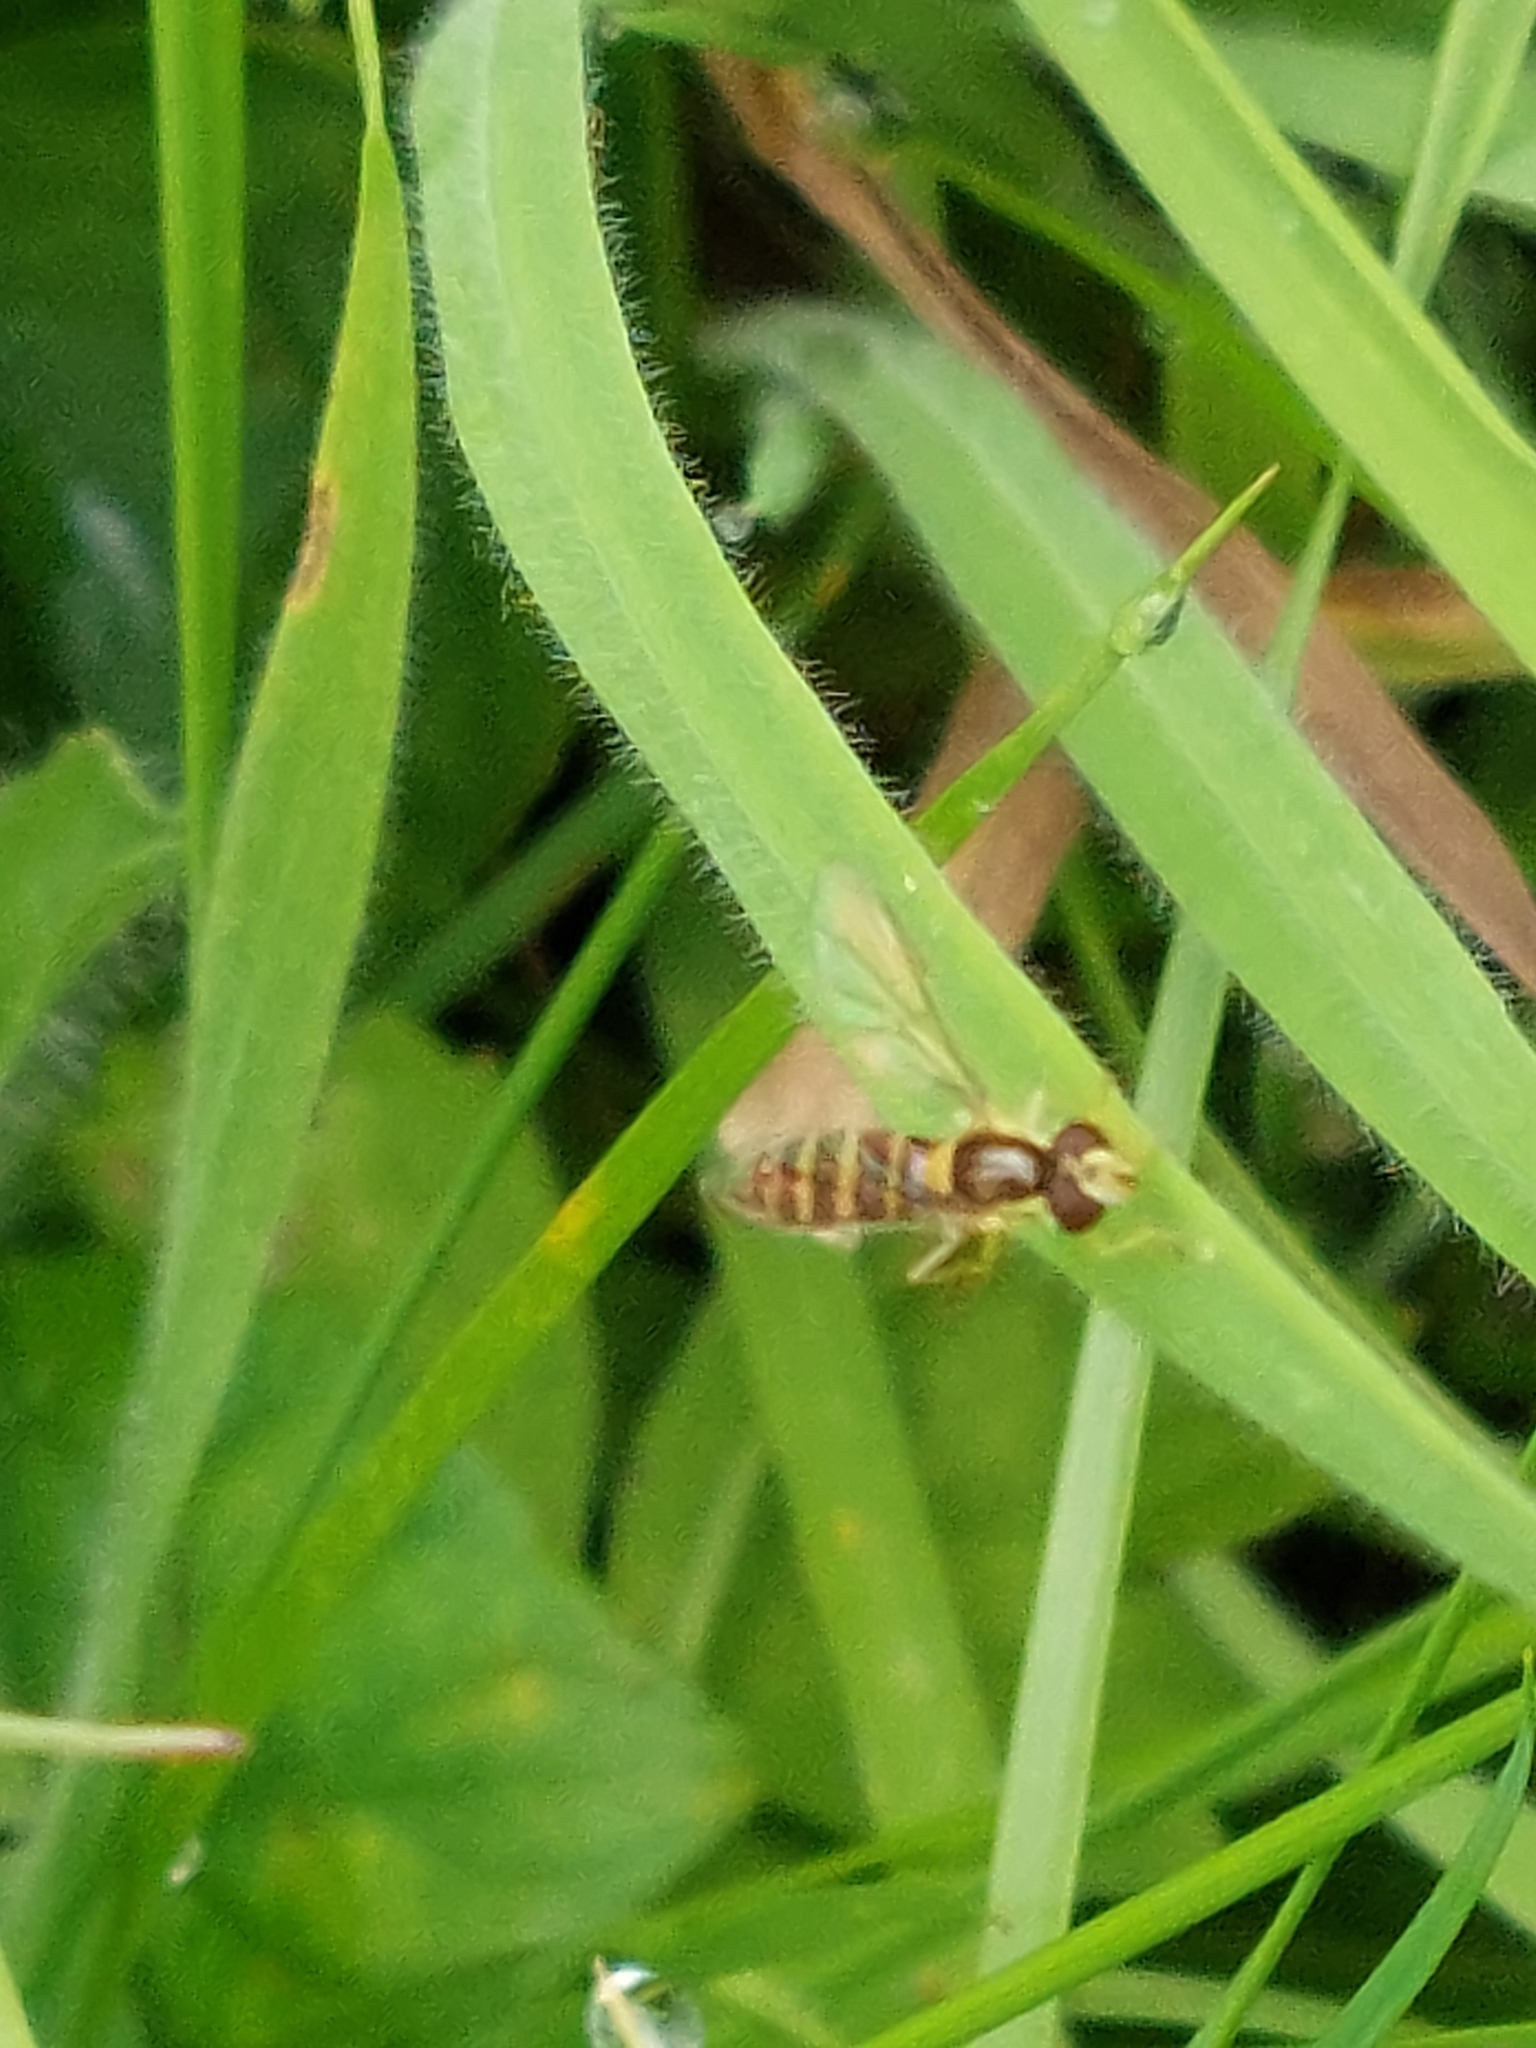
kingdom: Animalia
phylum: Arthropoda
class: Insecta
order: Diptera
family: Syrphidae
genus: Sphaerophoria
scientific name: Sphaerophoria
